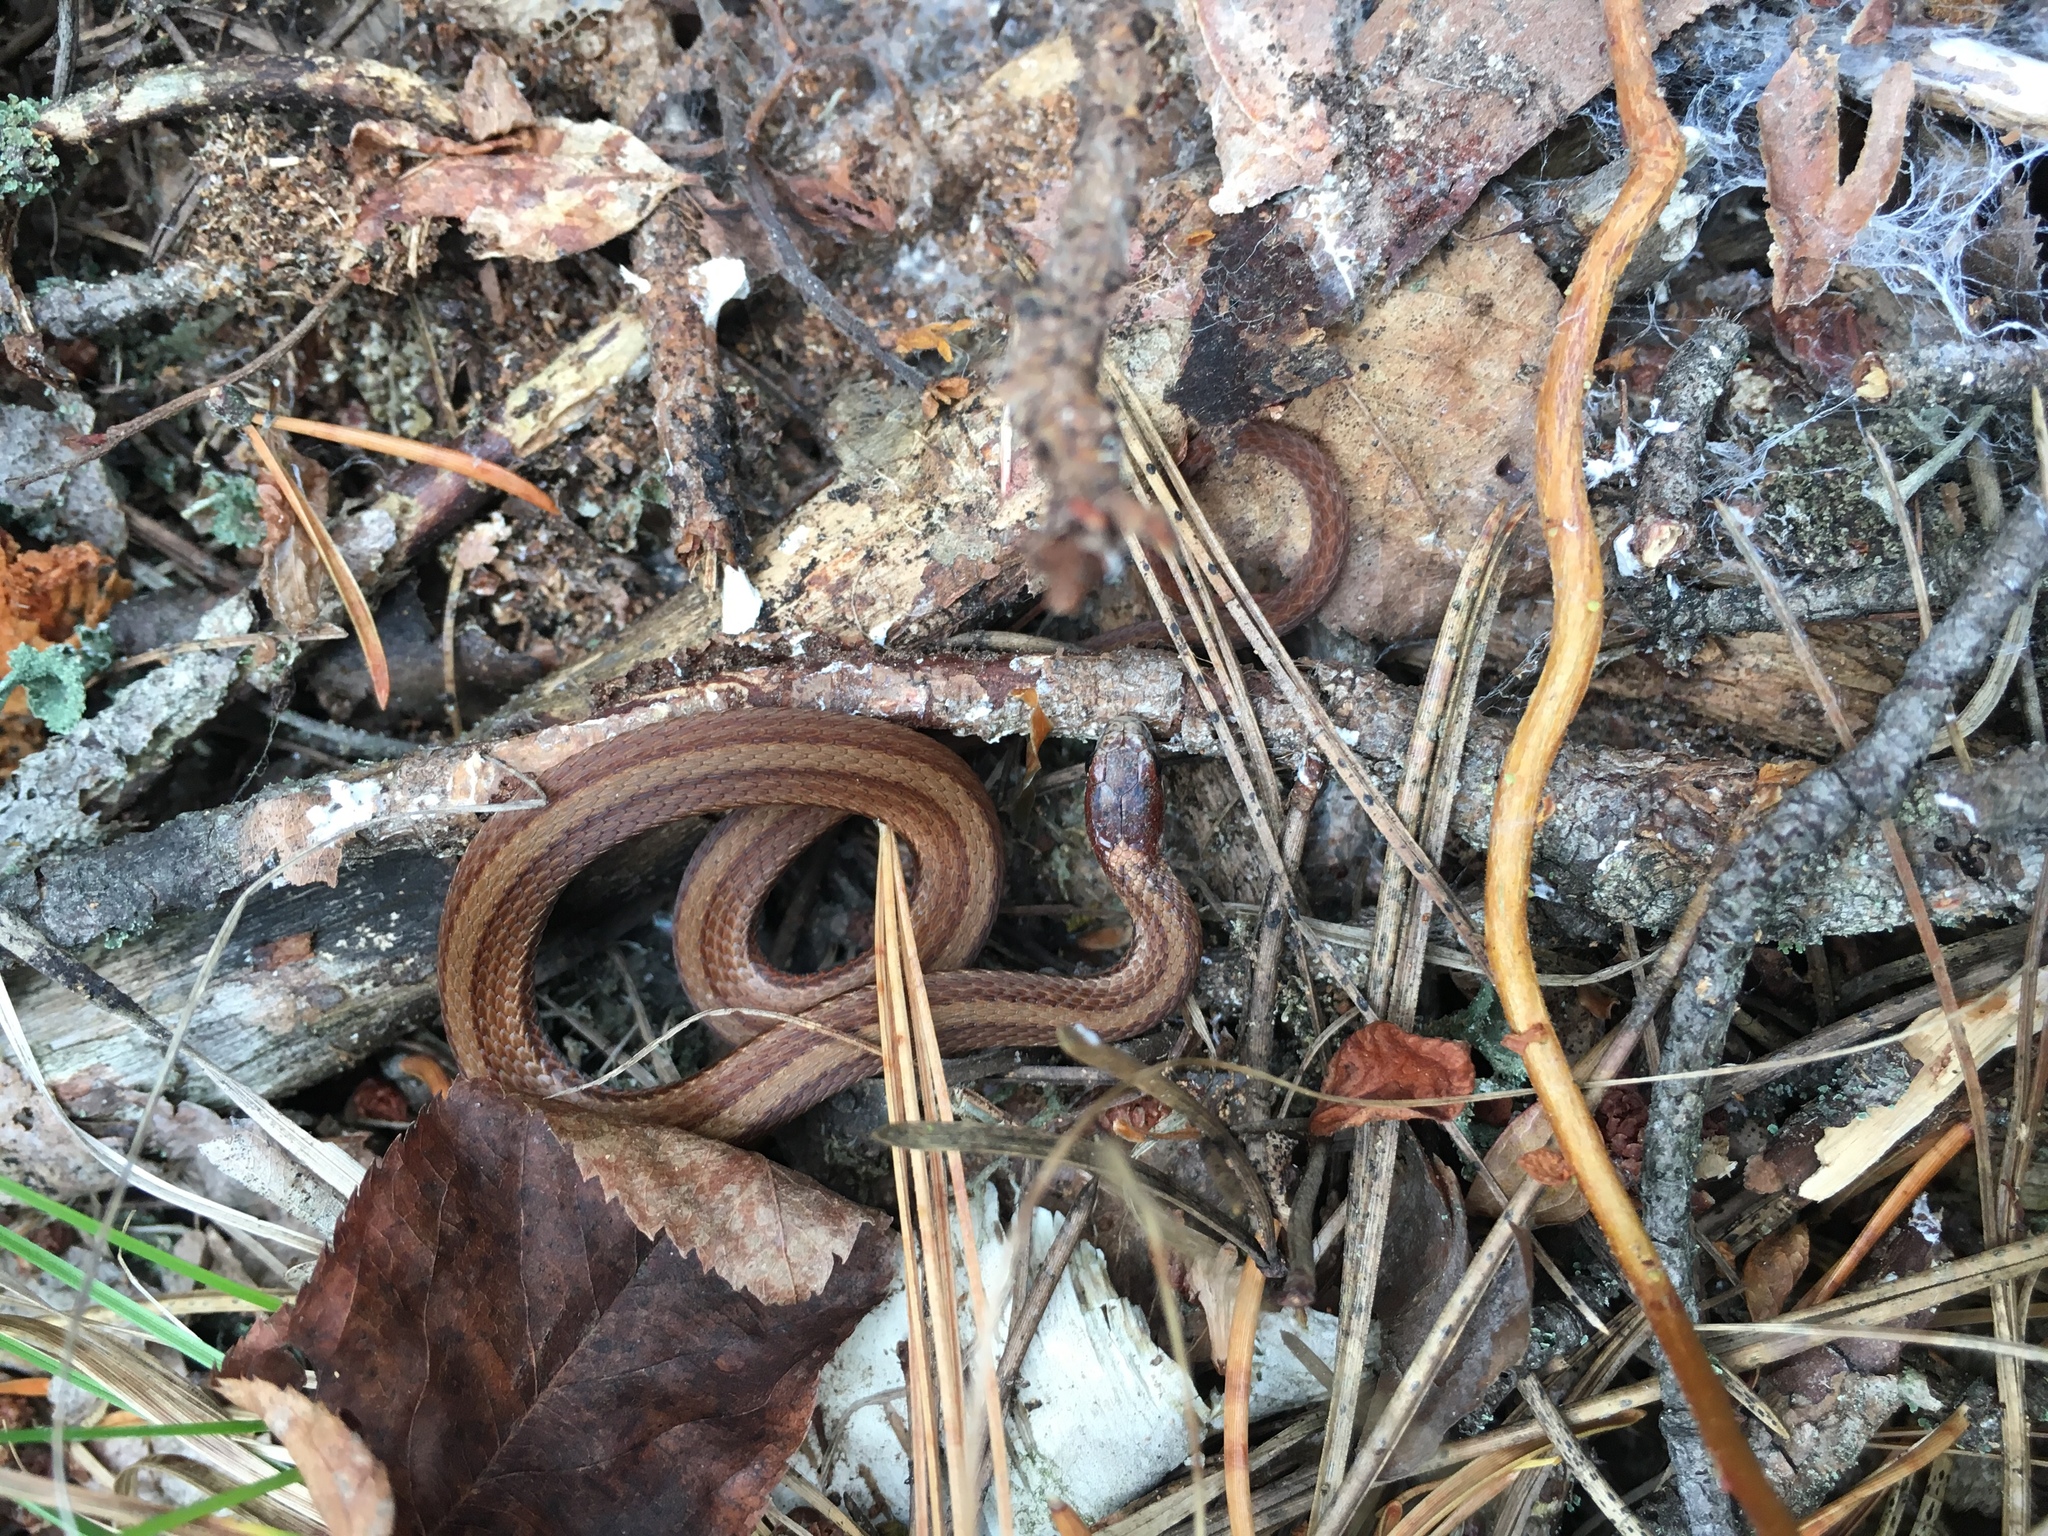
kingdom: Animalia
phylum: Chordata
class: Squamata
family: Colubridae
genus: Storeria
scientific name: Storeria occipitomaculata
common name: Redbelly snake
